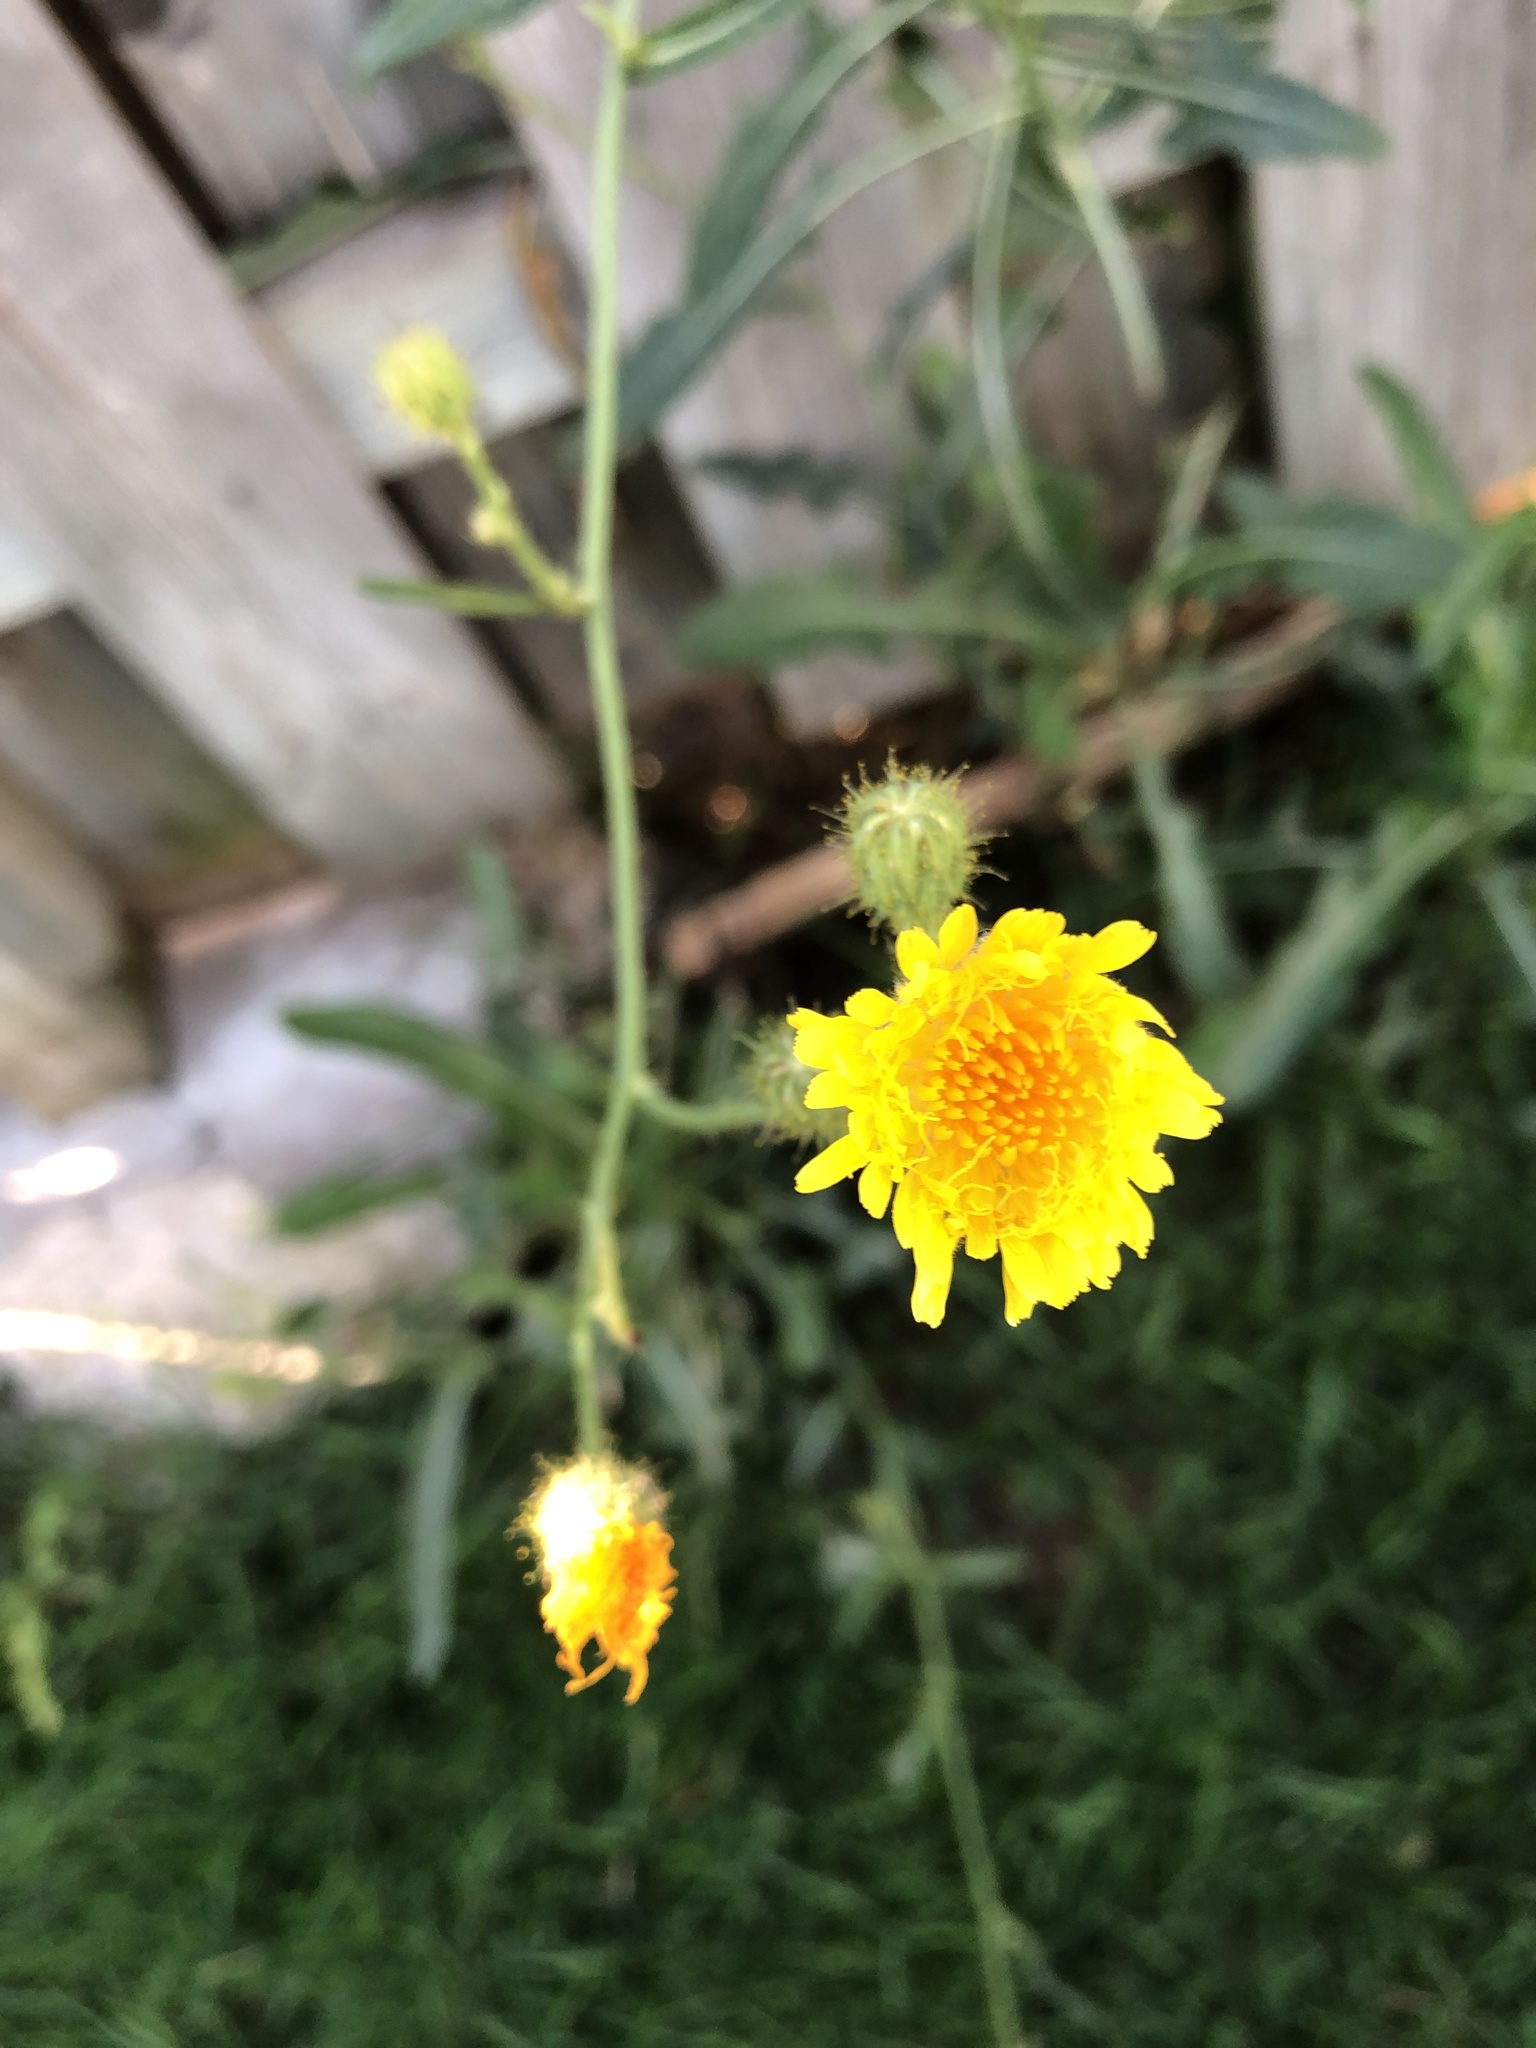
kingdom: Plantae
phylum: Tracheophyta
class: Magnoliopsida
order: Asterales
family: Asteraceae
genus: Sonchus
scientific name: Sonchus arvensis
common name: Perennial sow-thistle
